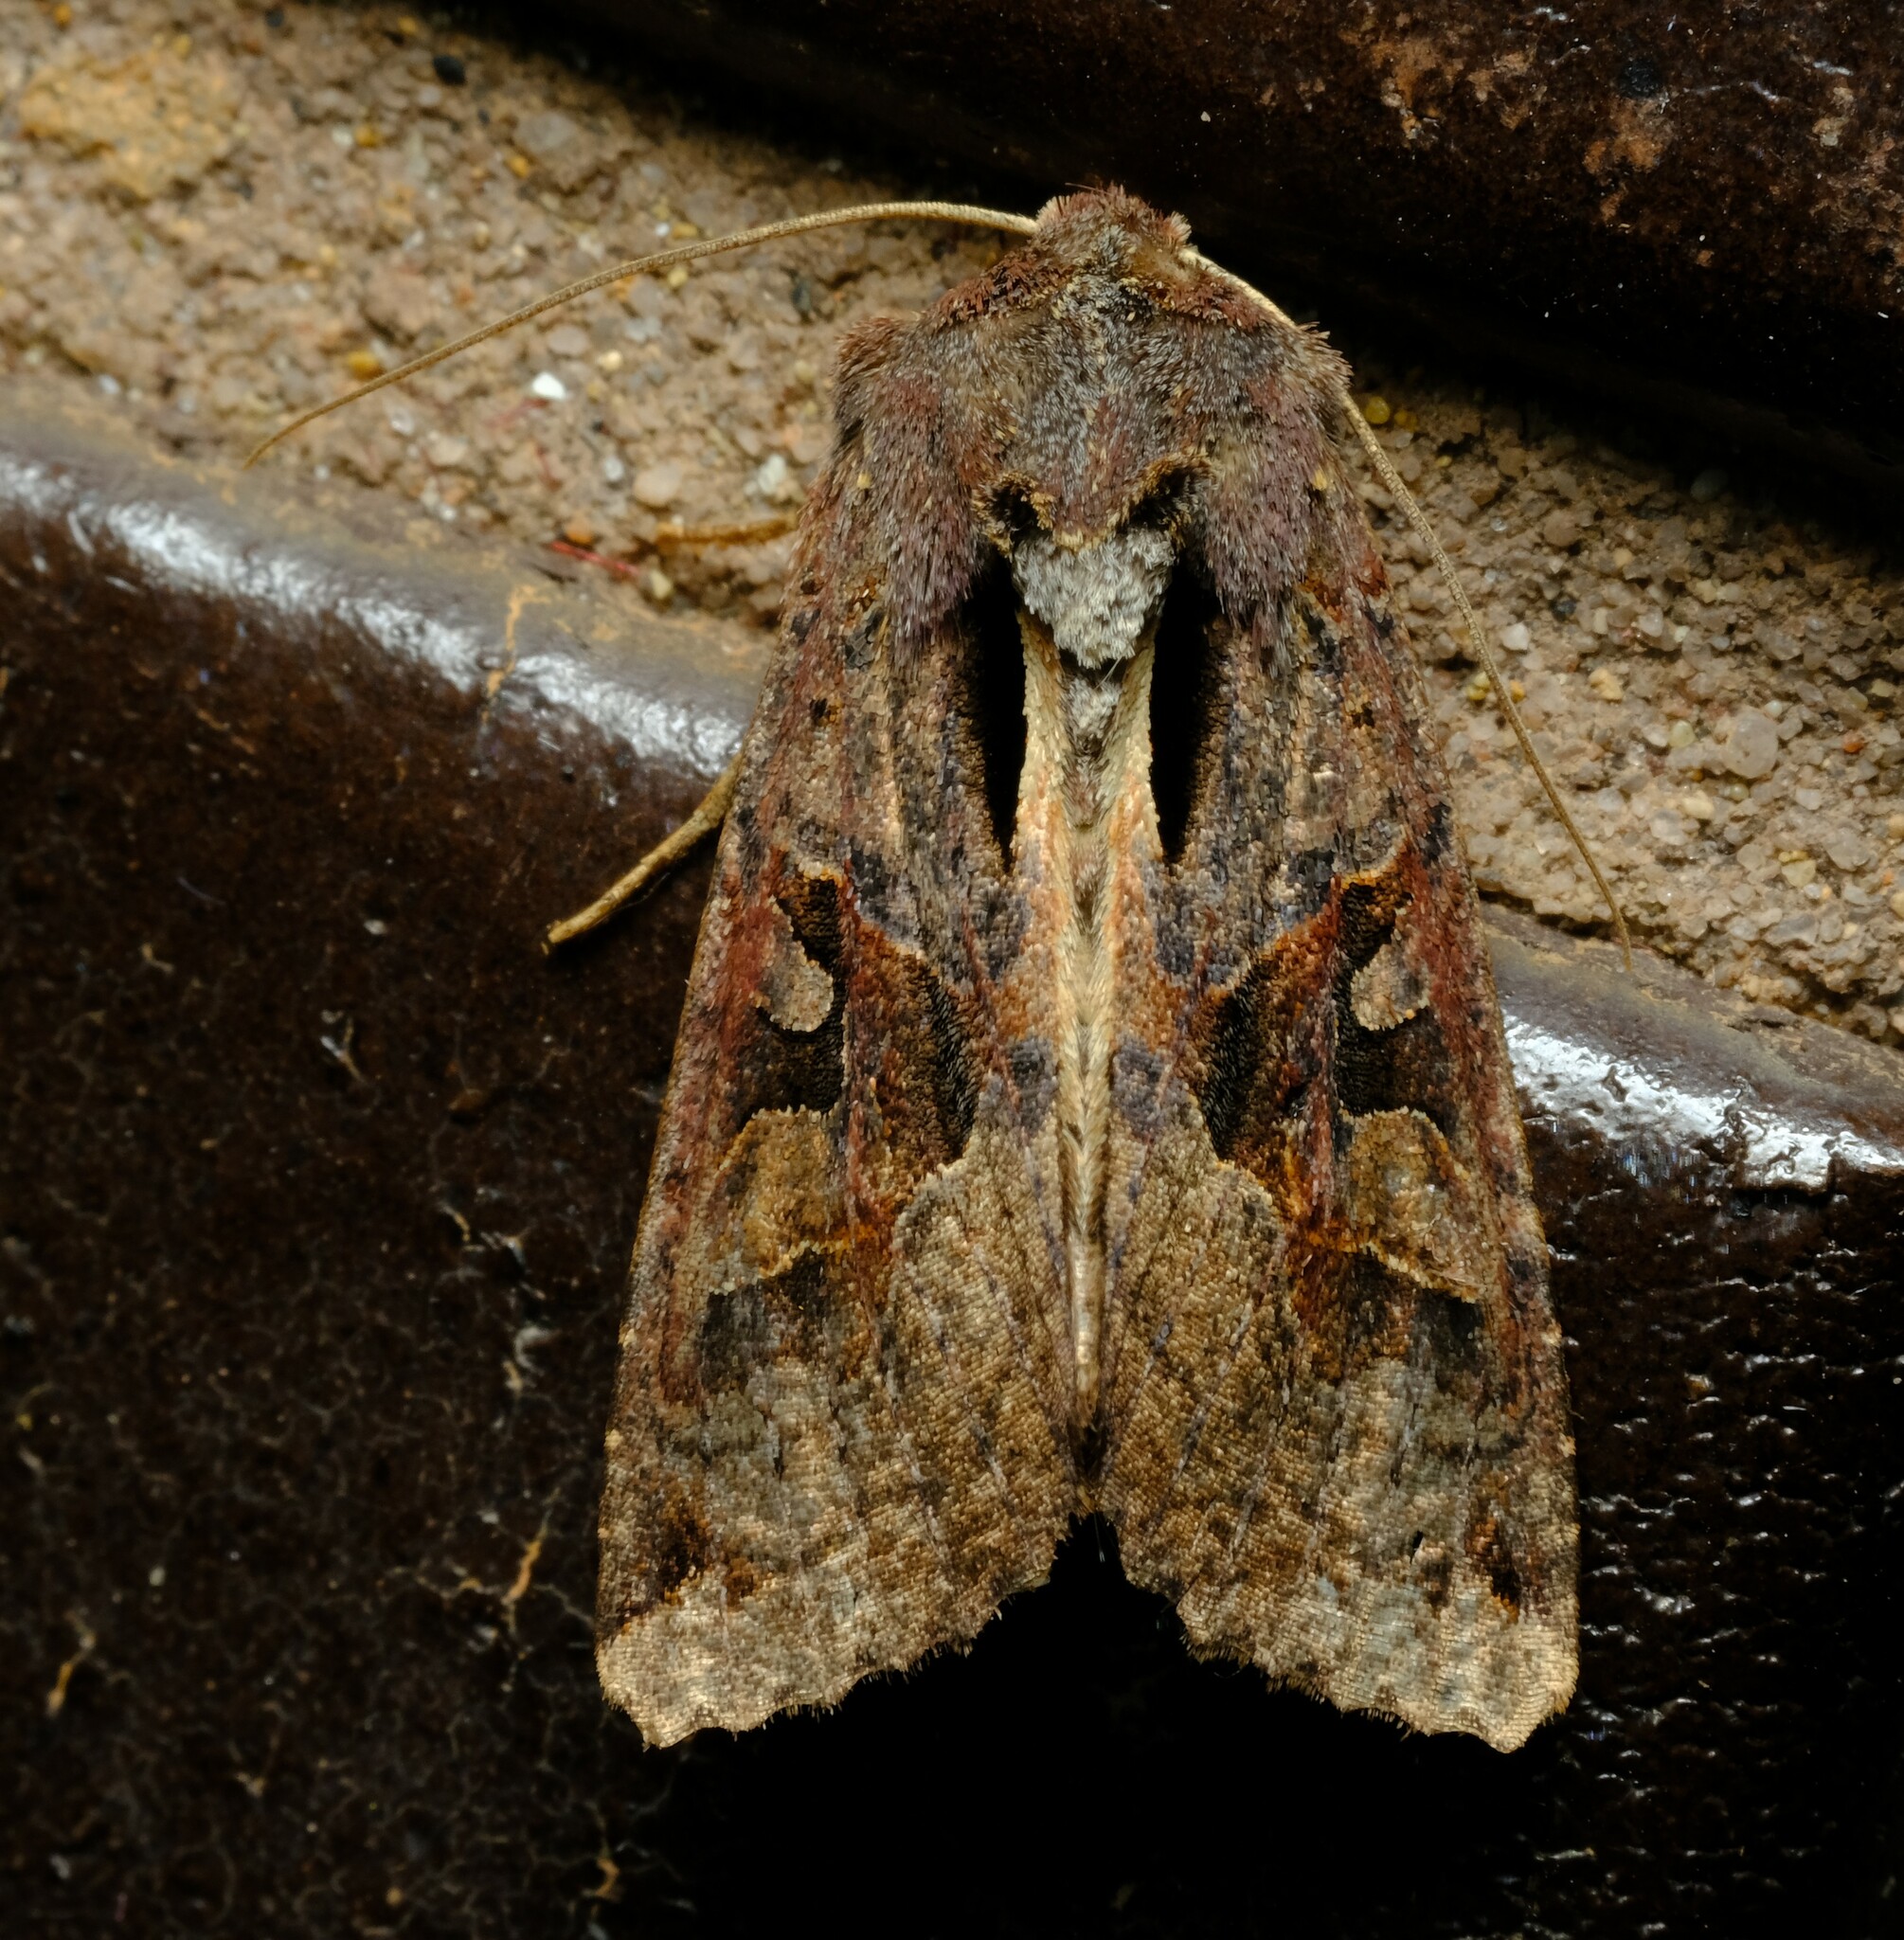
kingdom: Animalia
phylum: Arthropoda
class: Insecta
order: Lepidoptera
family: Noctuidae
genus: Neumichtis
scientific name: Neumichtis signata
